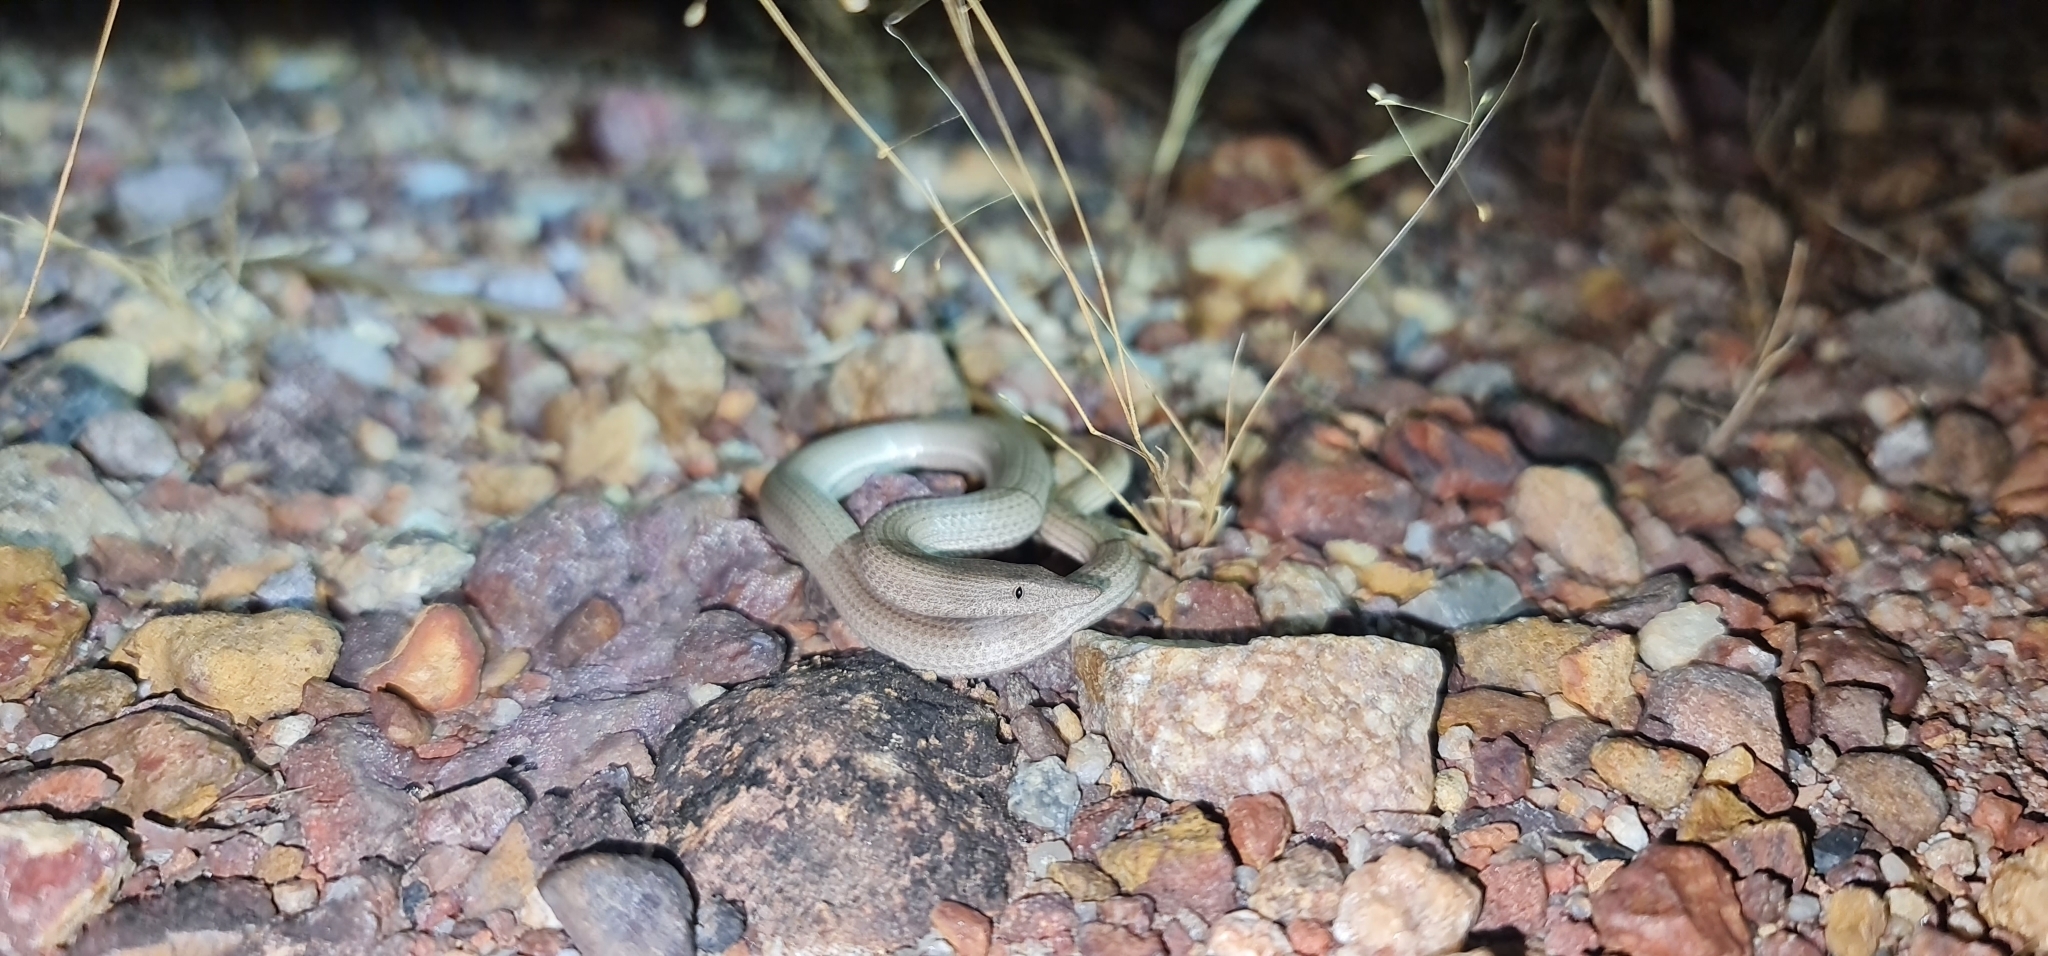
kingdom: Animalia
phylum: Chordata
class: Squamata
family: Pygopodidae
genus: Lialis
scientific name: Lialis burtonis
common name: Burton's legless lizard
